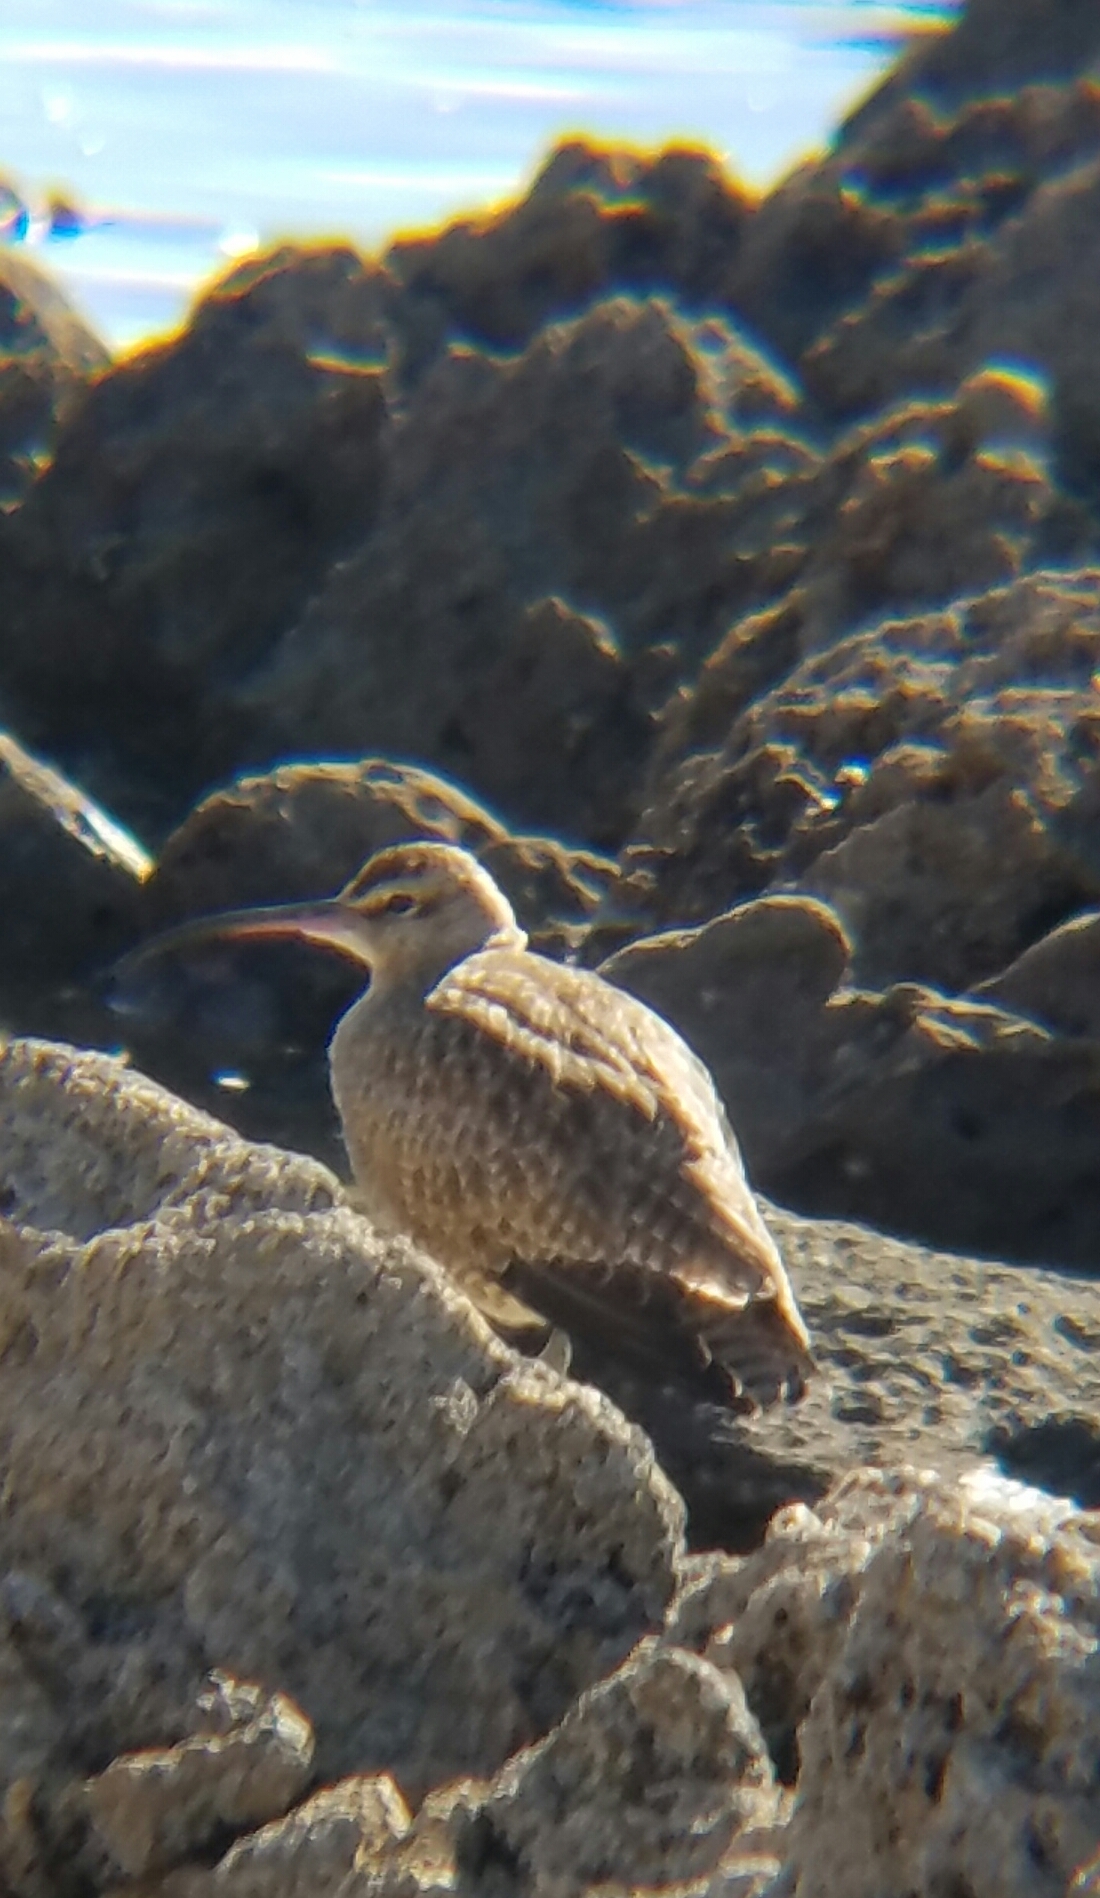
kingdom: Animalia
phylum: Chordata
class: Aves
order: Charadriiformes
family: Scolopacidae
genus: Numenius
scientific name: Numenius phaeopus
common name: Whimbrel
